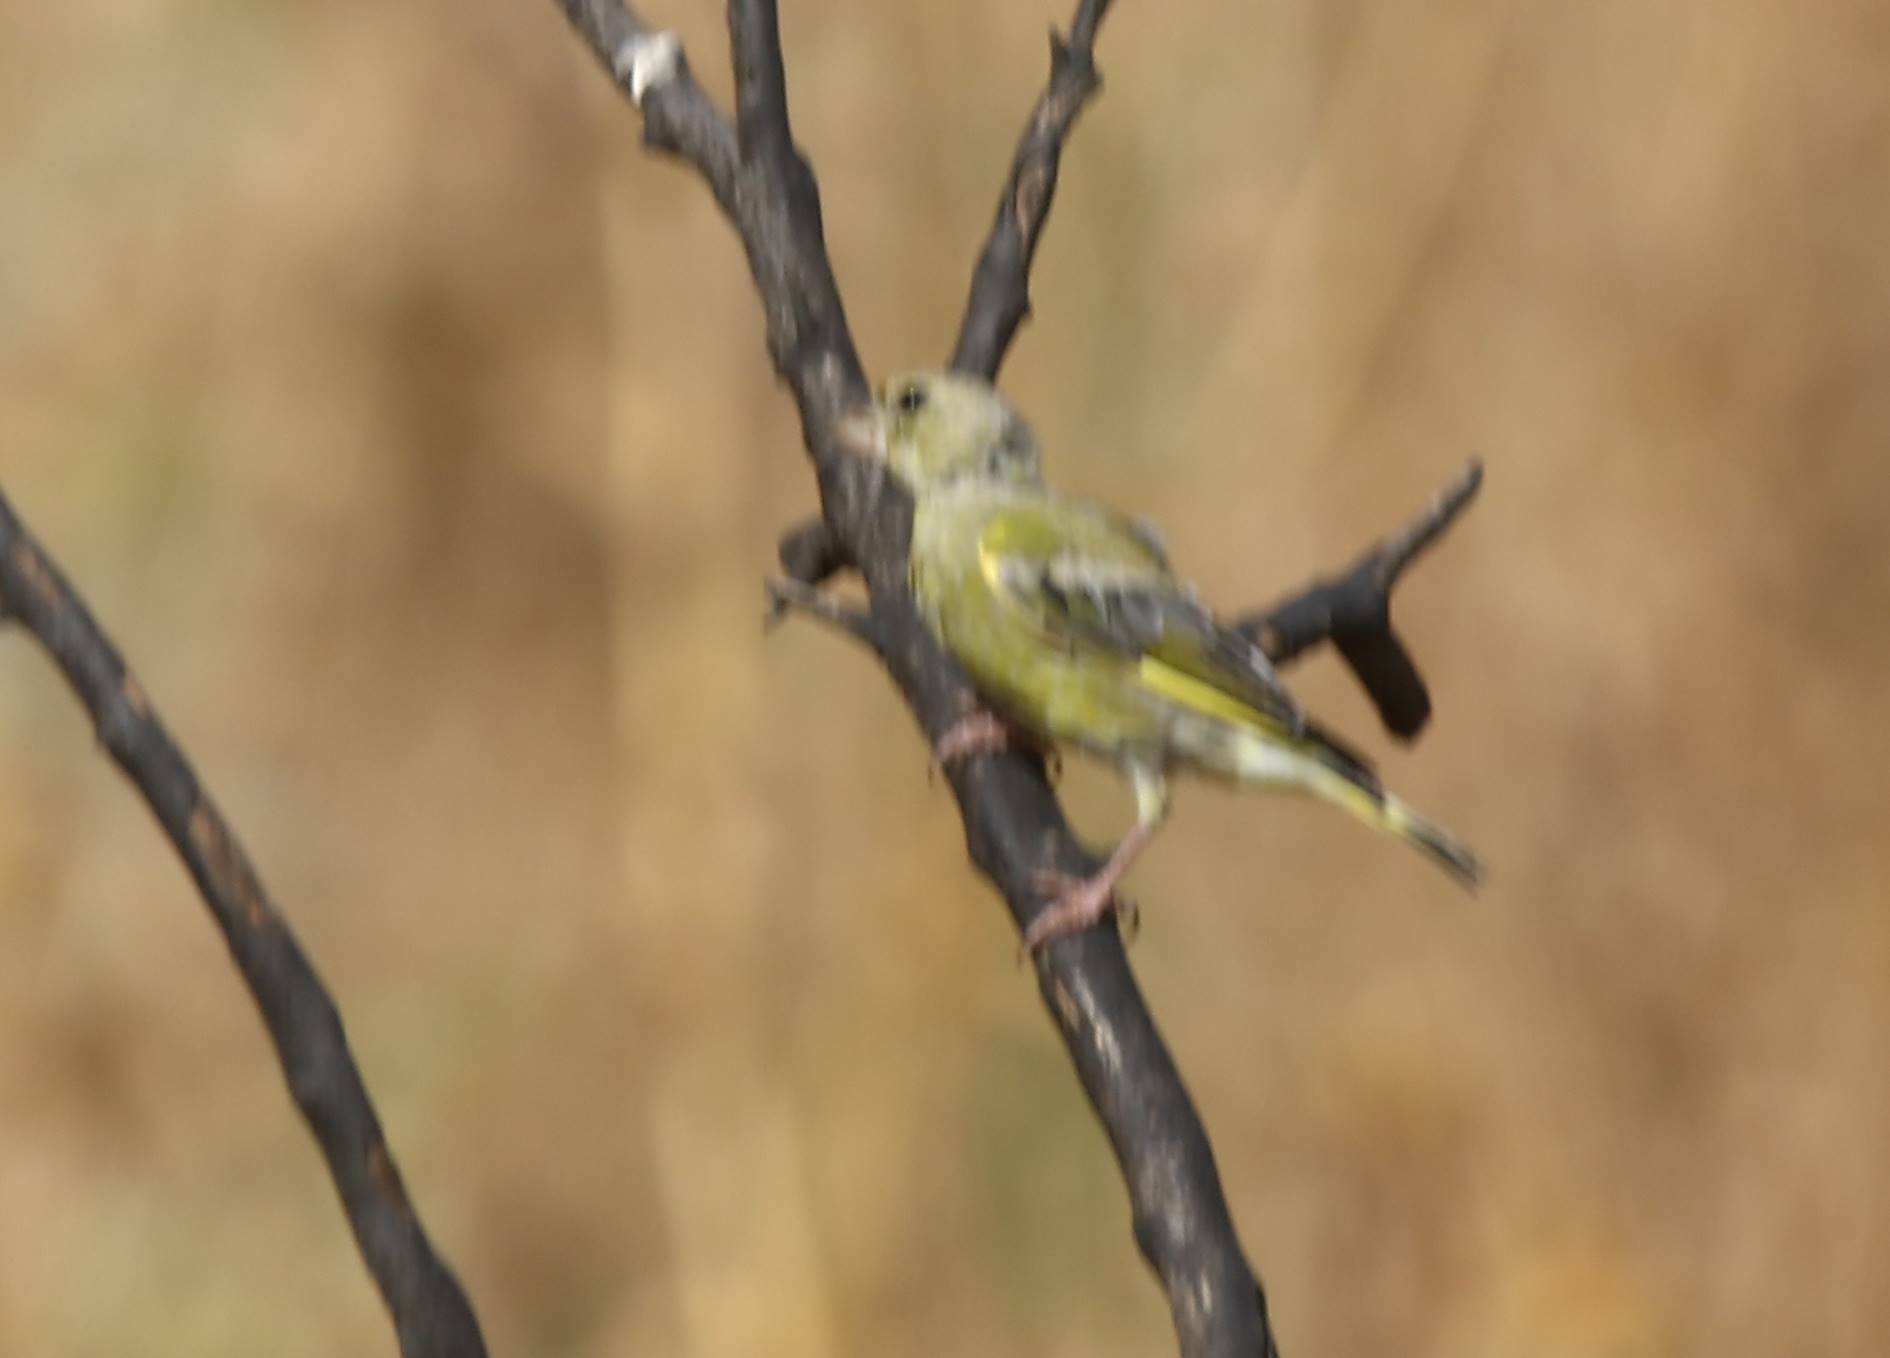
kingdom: Plantae
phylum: Tracheophyta
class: Liliopsida
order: Poales
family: Poaceae
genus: Chloris
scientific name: Chloris chloris
